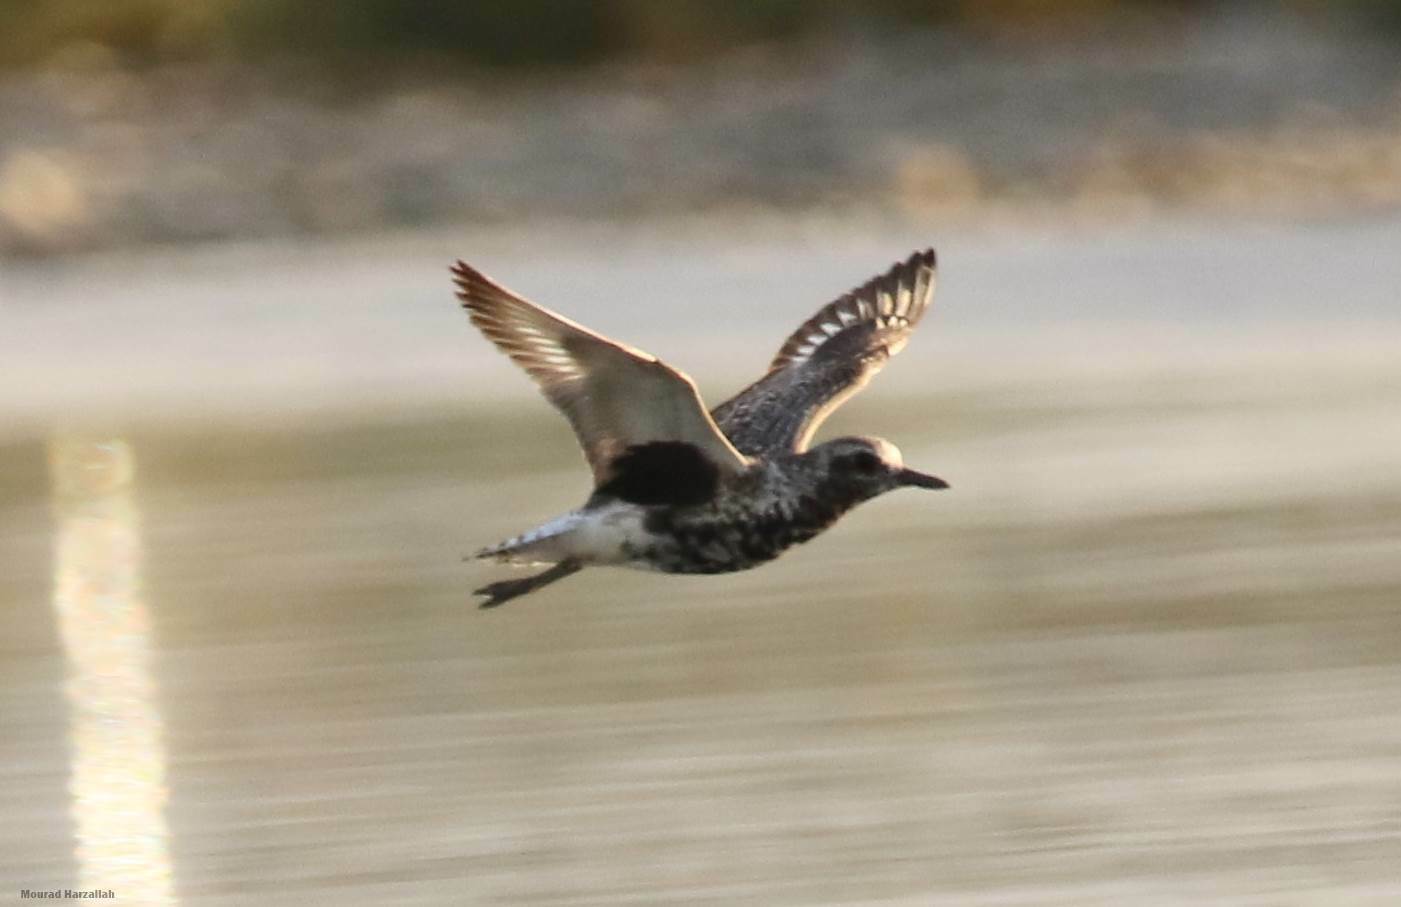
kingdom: Animalia
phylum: Chordata
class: Aves
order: Charadriiformes
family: Charadriidae
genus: Pluvialis
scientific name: Pluvialis squatarola
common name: Grey plover
